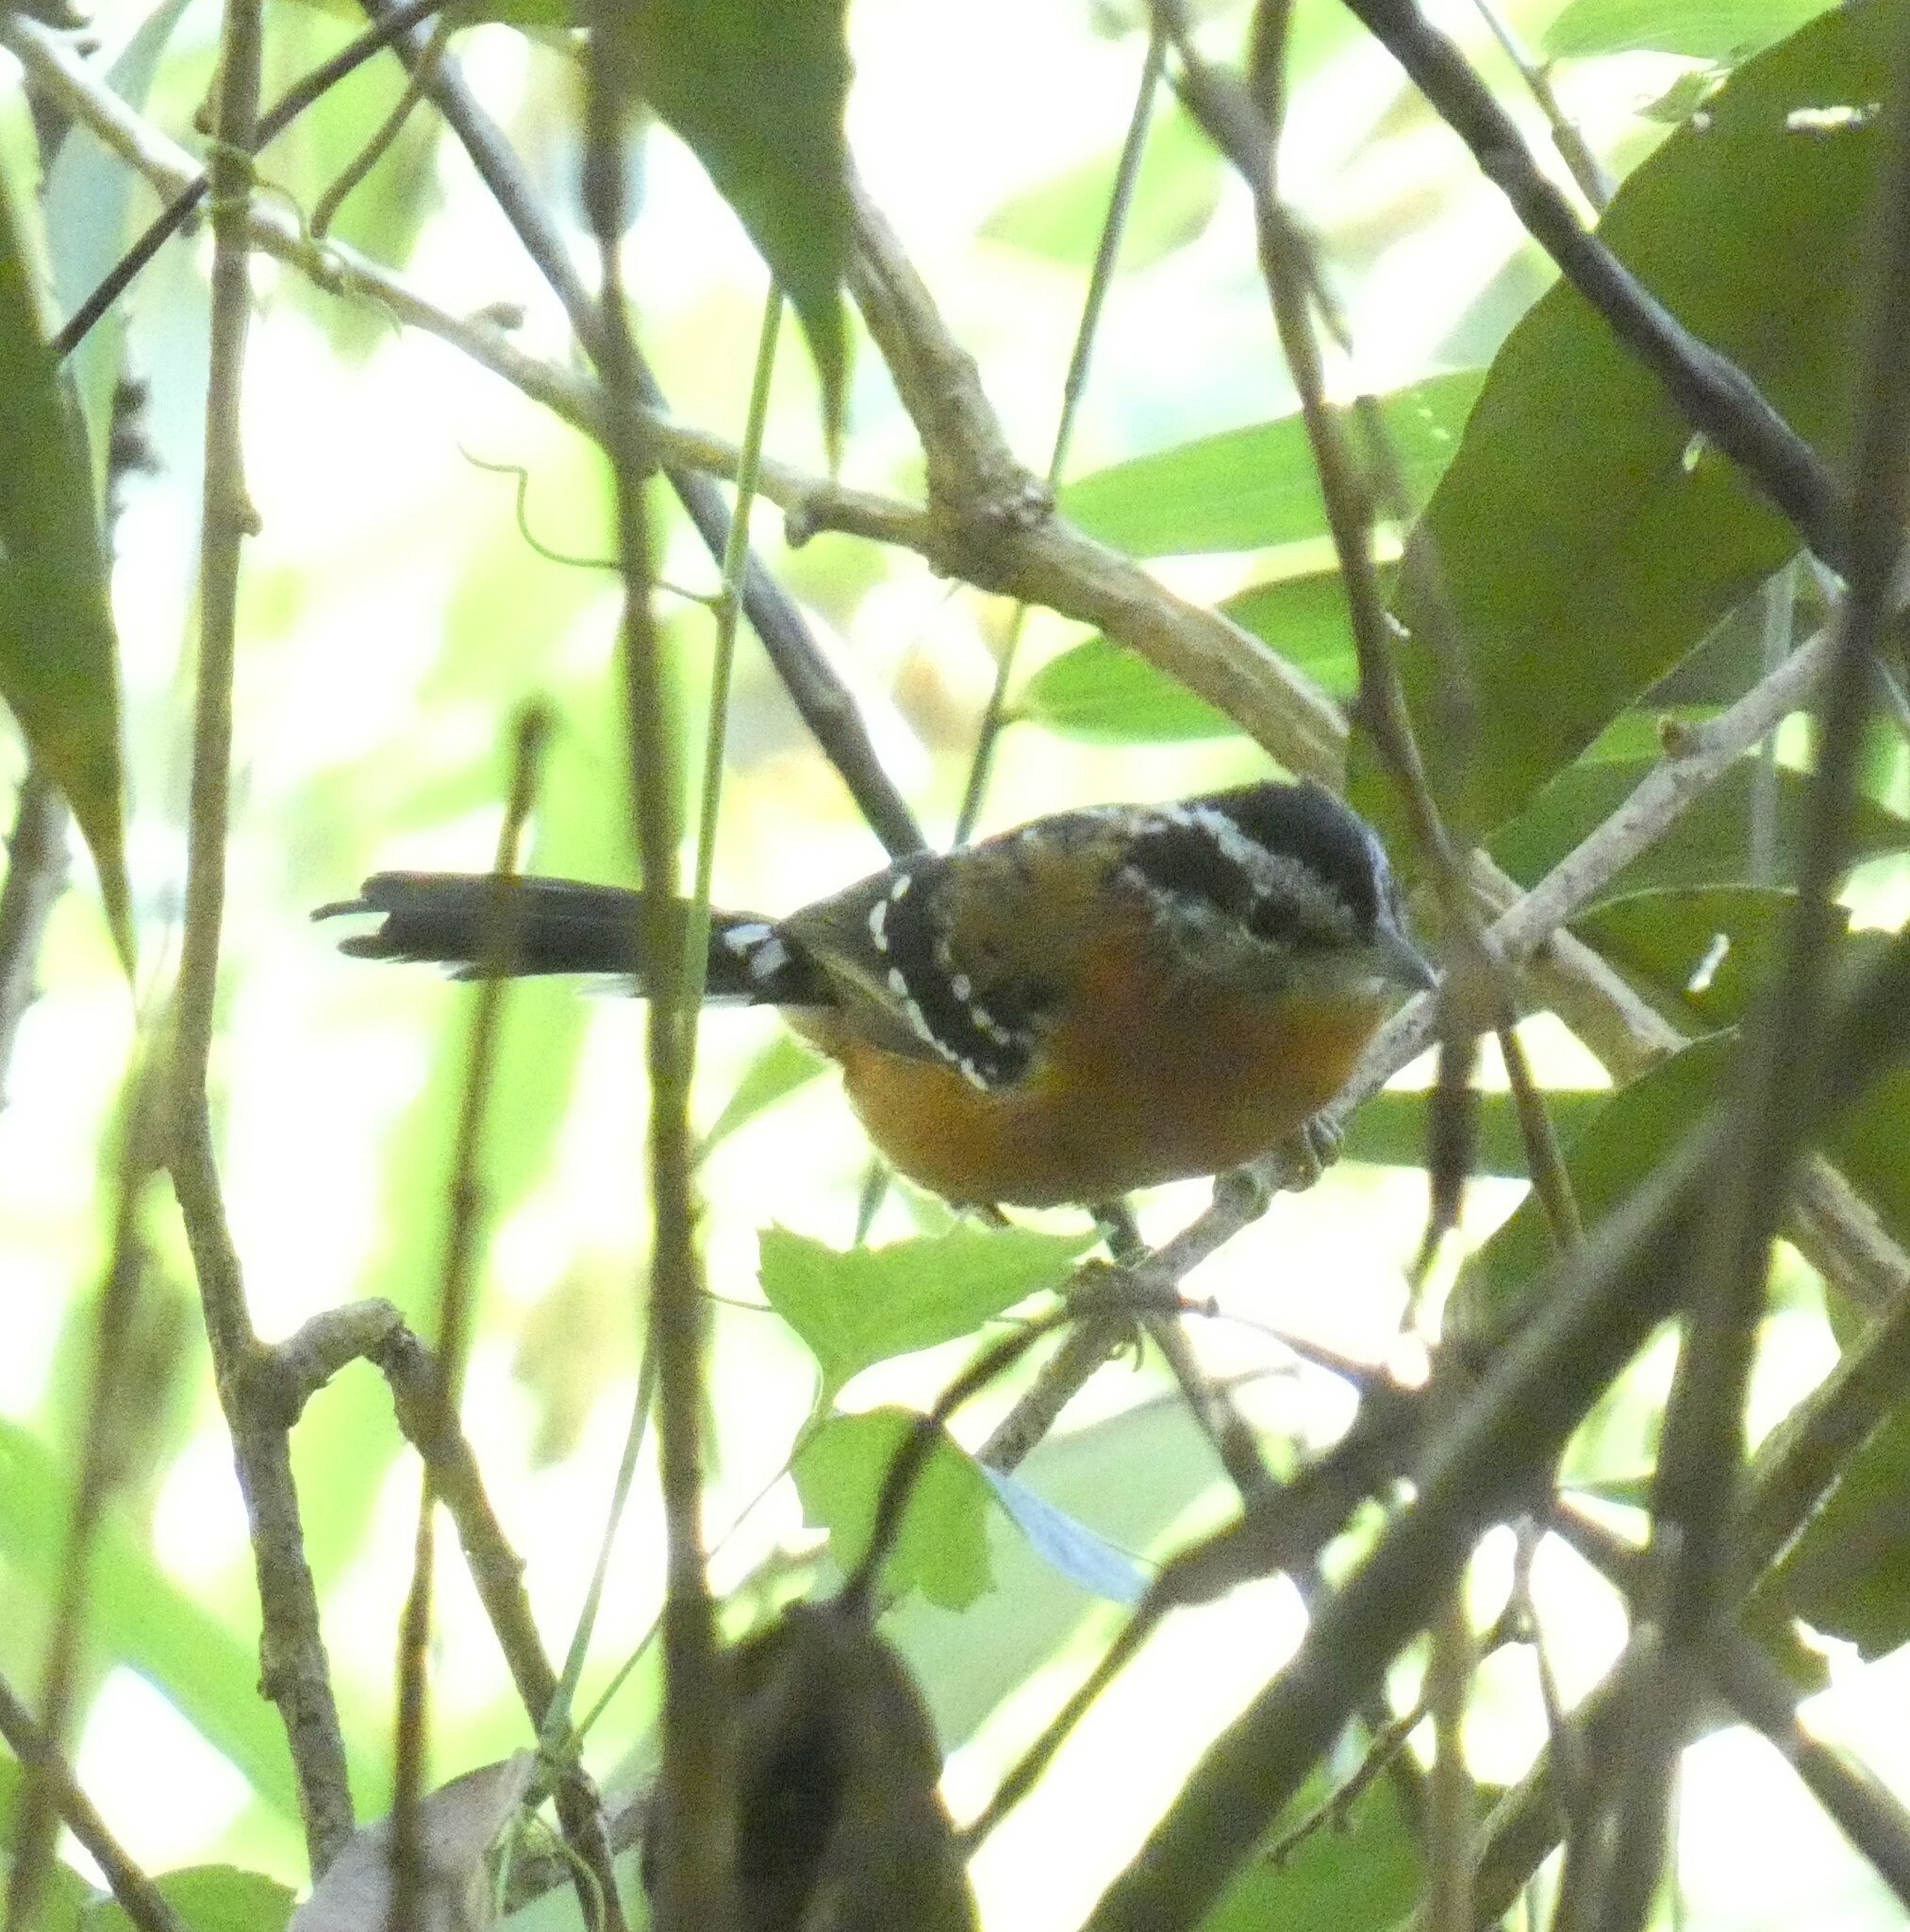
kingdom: Animalia
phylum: Chordata
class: Aves
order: Passeriformes
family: Thamnophilidae
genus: Drymophila
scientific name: Drymophila ferruginea
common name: Ferruginous antbird
